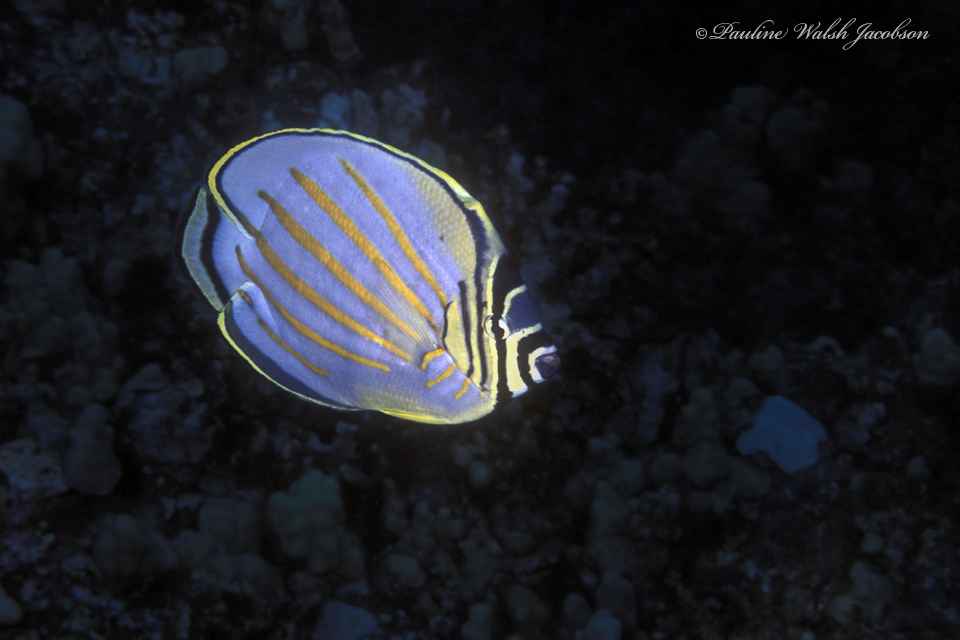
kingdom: Animalia
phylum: Chordata
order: Perciformes
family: Chaetodontidae
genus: Chaetodon
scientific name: Chaetodon ornatissimus
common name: Ornate butterflyfish
